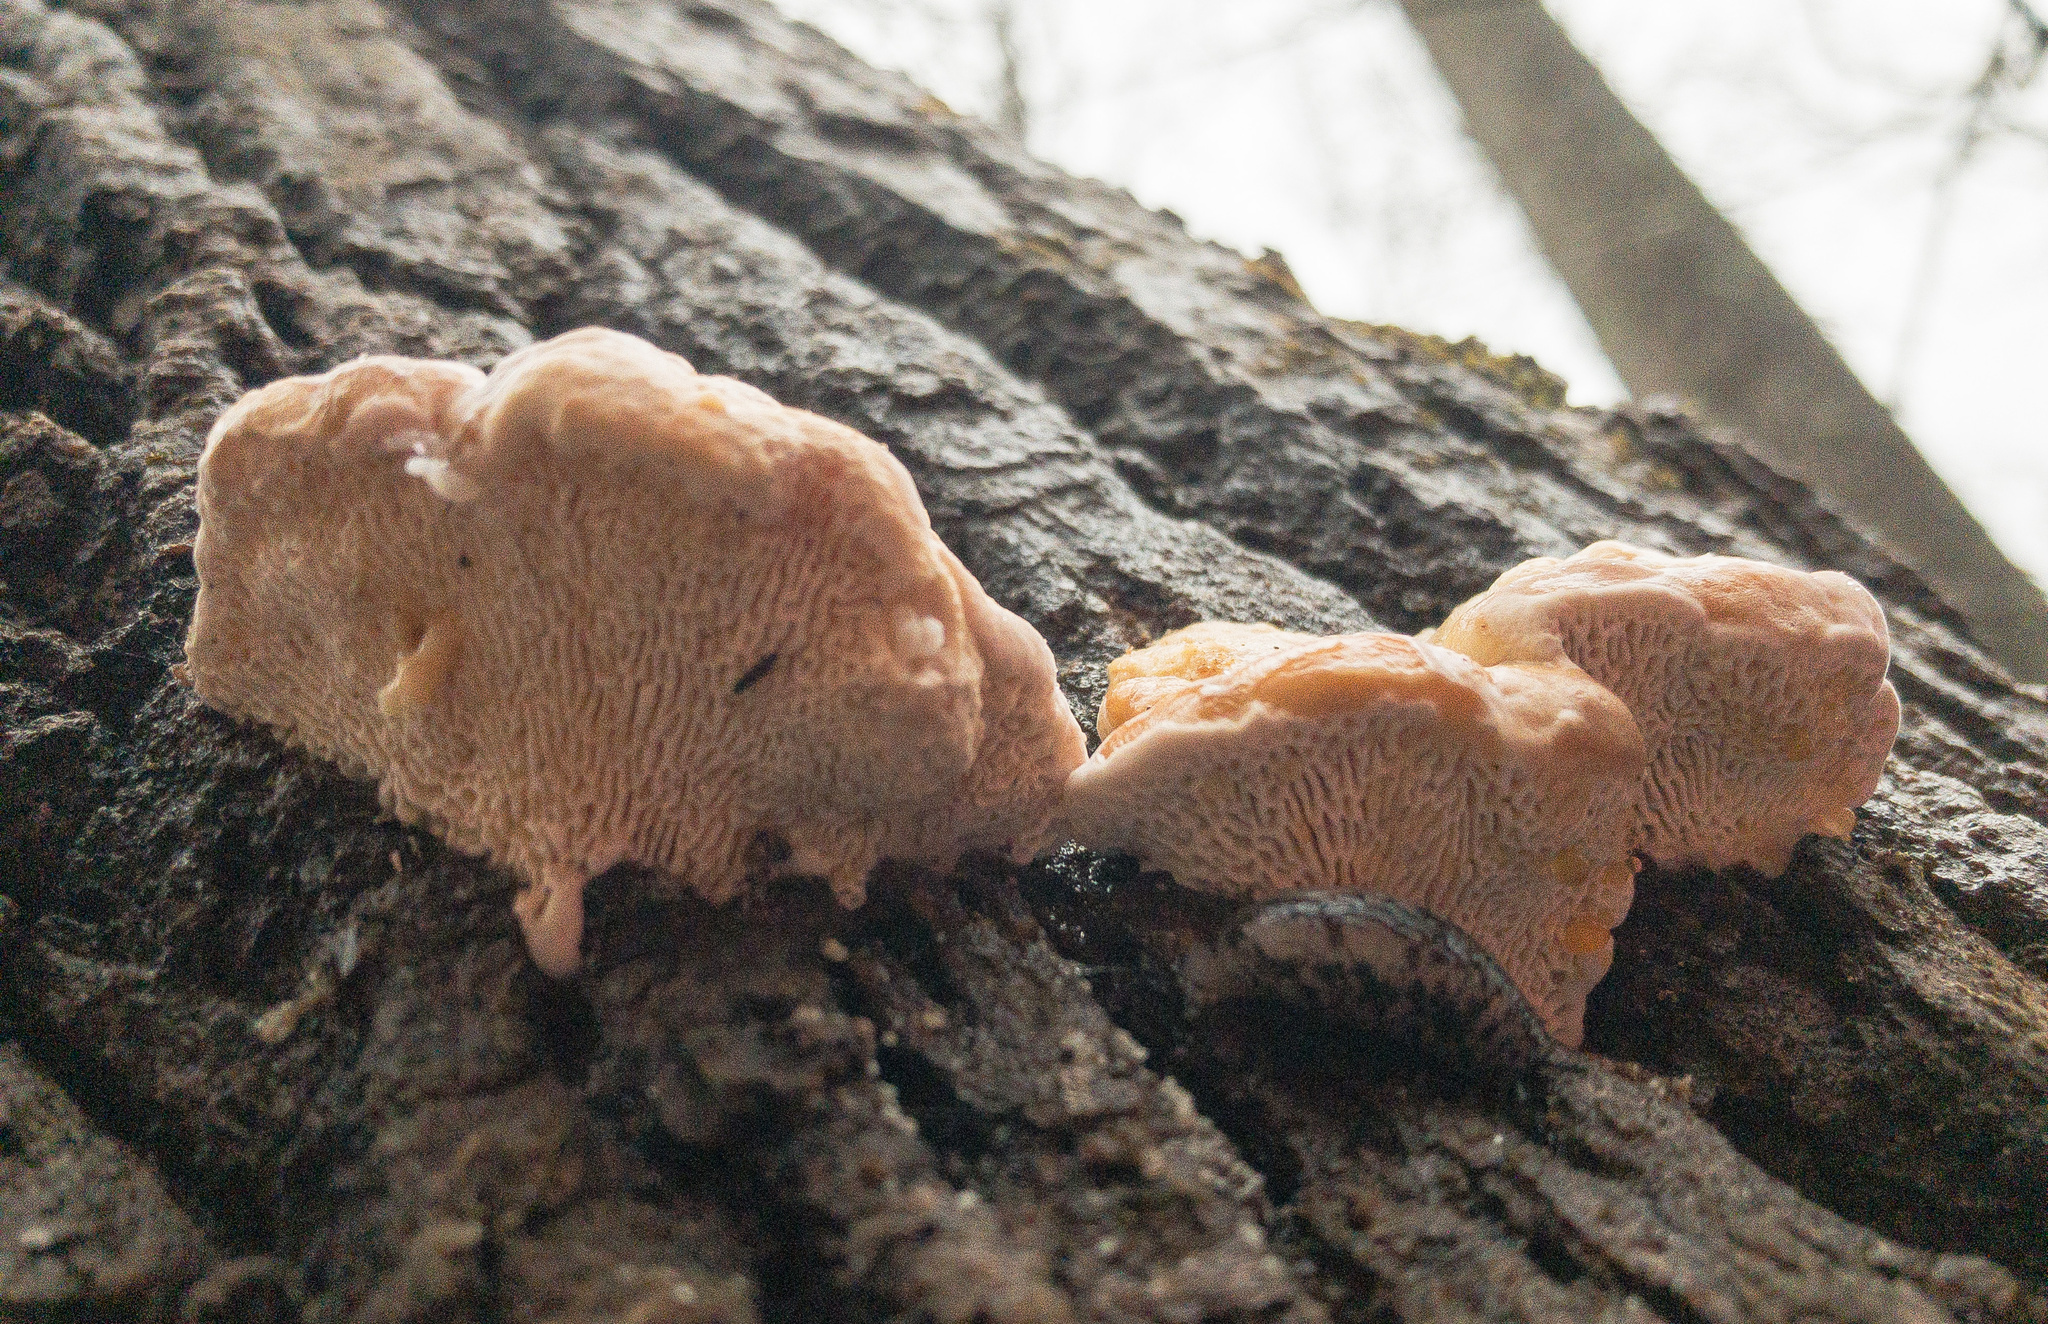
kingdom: Fungi
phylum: Basidiomycota
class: Agaricomycetes
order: Polyporales
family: Fomitopsidaceae
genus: Fomitopsis
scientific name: Fomitopsis
